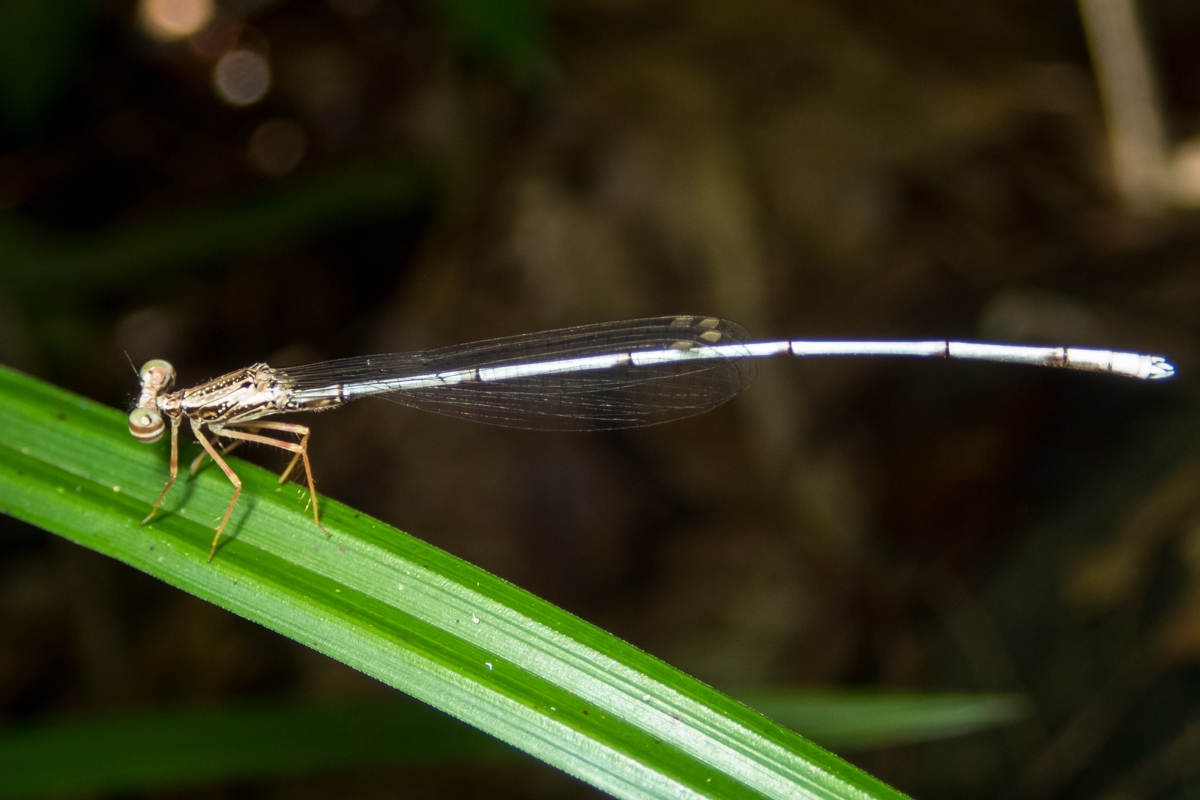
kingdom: Animalia
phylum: Arthropoda
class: Insecta
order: Odonata
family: Platycnemididae
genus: Copera
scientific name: Copera vittata
